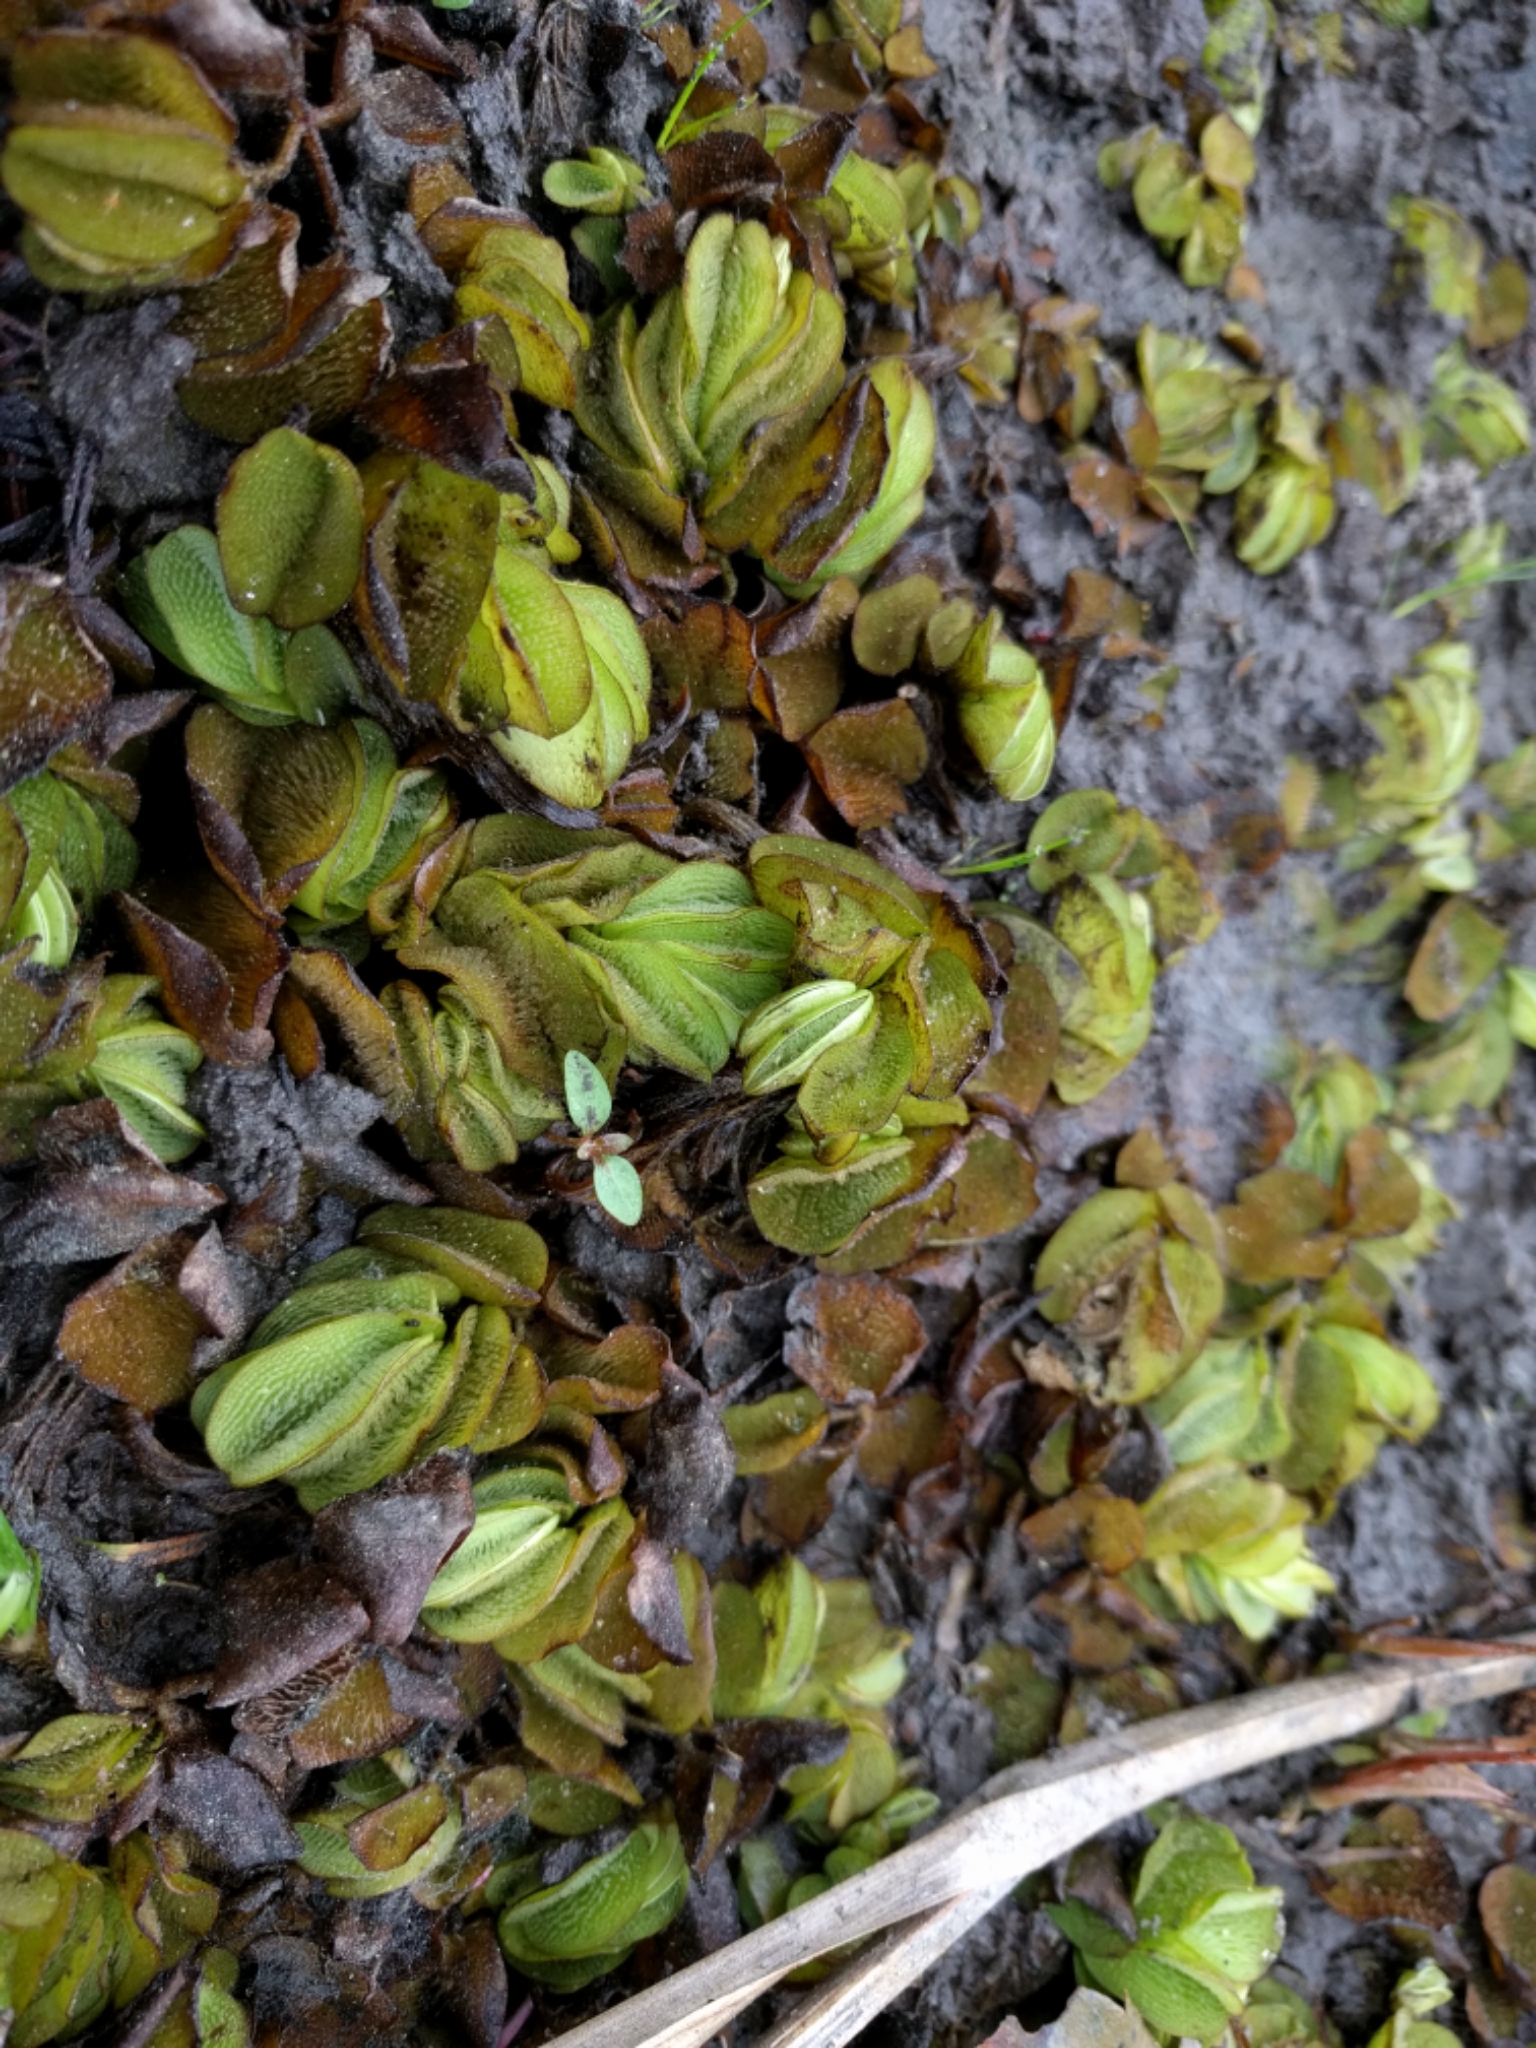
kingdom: Plantae
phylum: Tracheophyta
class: Polypodiopsida
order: Salviniales
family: Salviniaceae
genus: Salvinia
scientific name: Salvinia molesta
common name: Kariba weed
